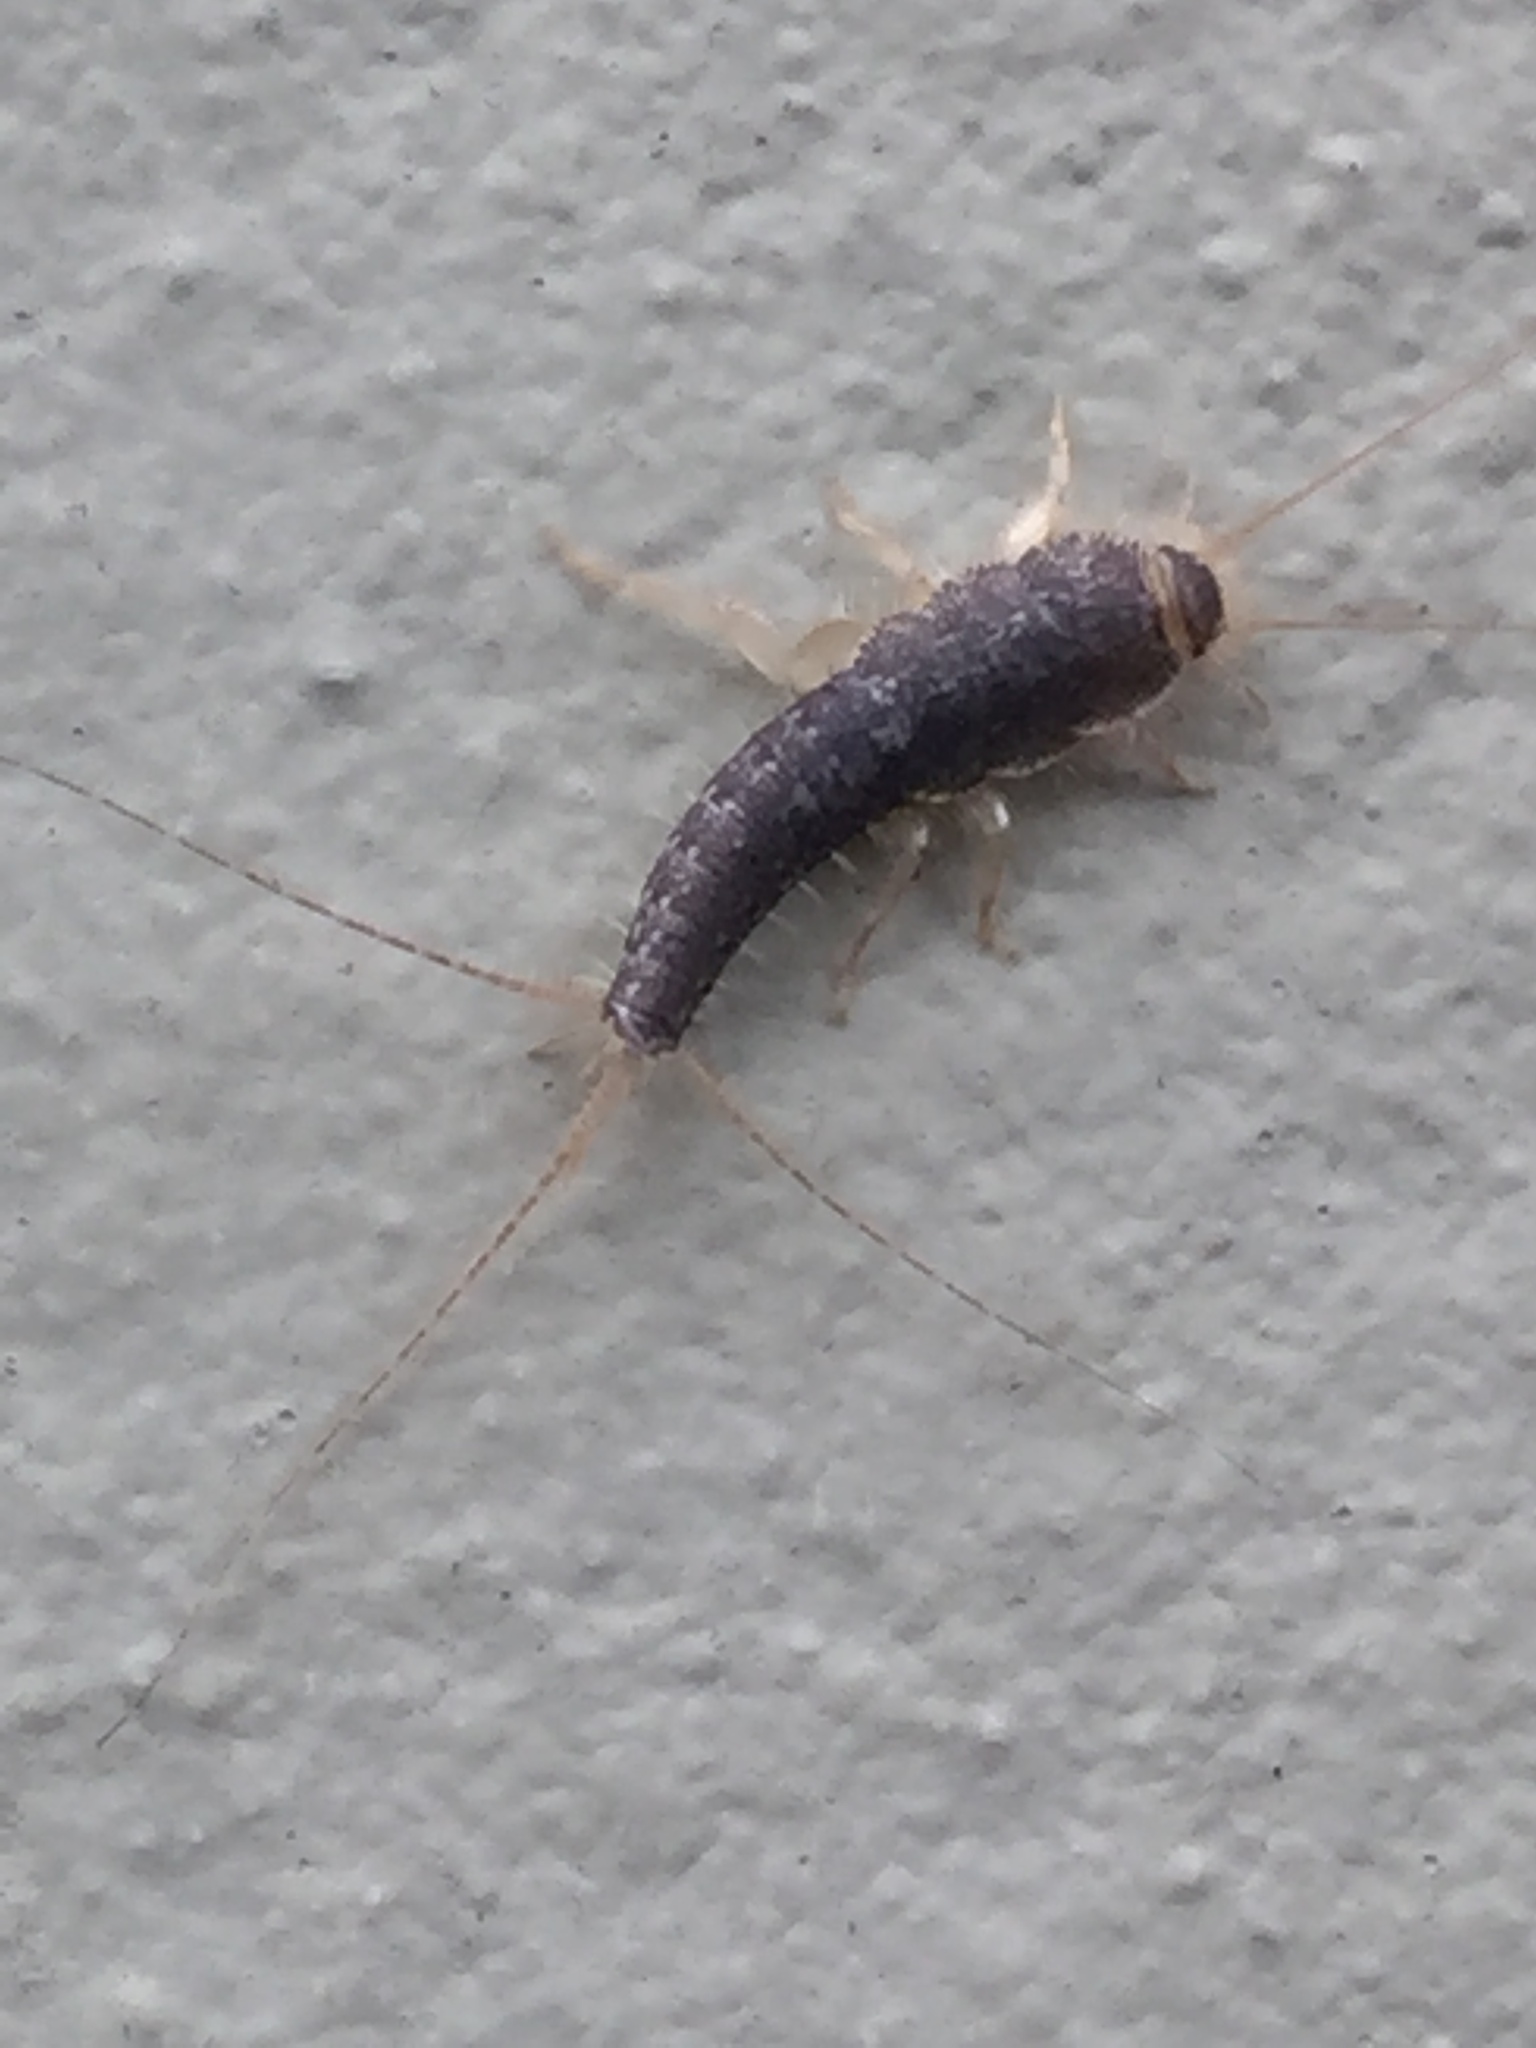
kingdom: Animalia
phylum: Arthropoda
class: Insecta
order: Zygentoma
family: Lepismatidae
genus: Ctenolepisma
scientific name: Ctenolepisma longicaudatum
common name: Silverfish
